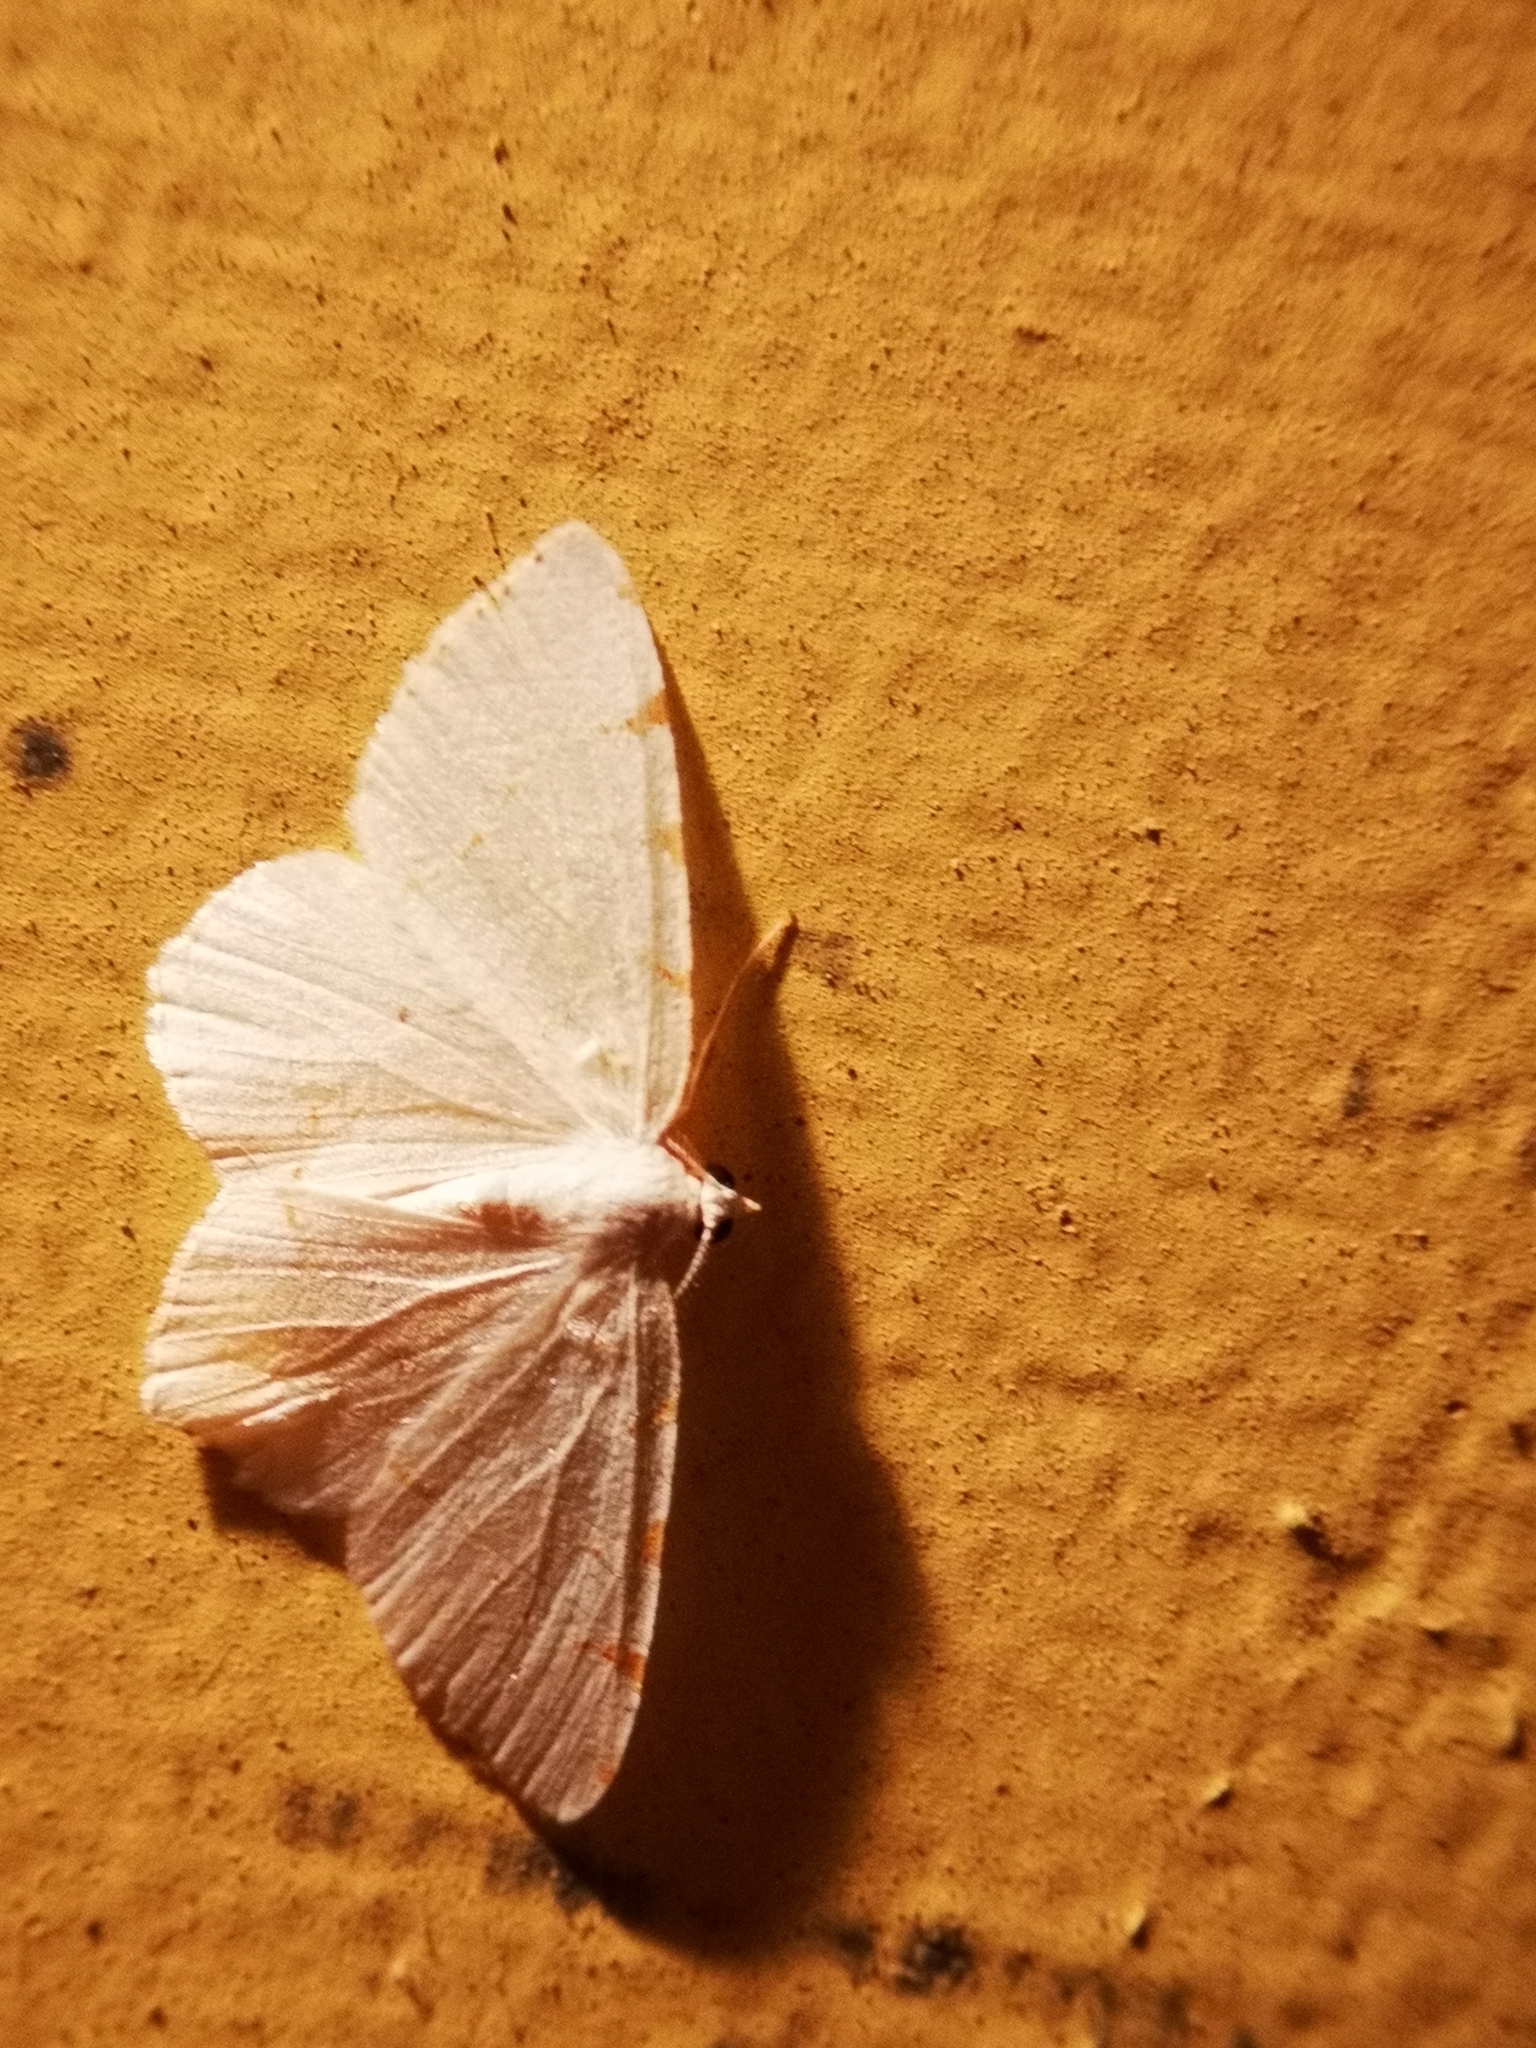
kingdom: Animalia
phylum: Arthropoda
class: Insecta
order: Lepidoptera
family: Geometridae
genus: Macaria
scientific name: Macaria pustularia
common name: Lesser maple spanworm moth
